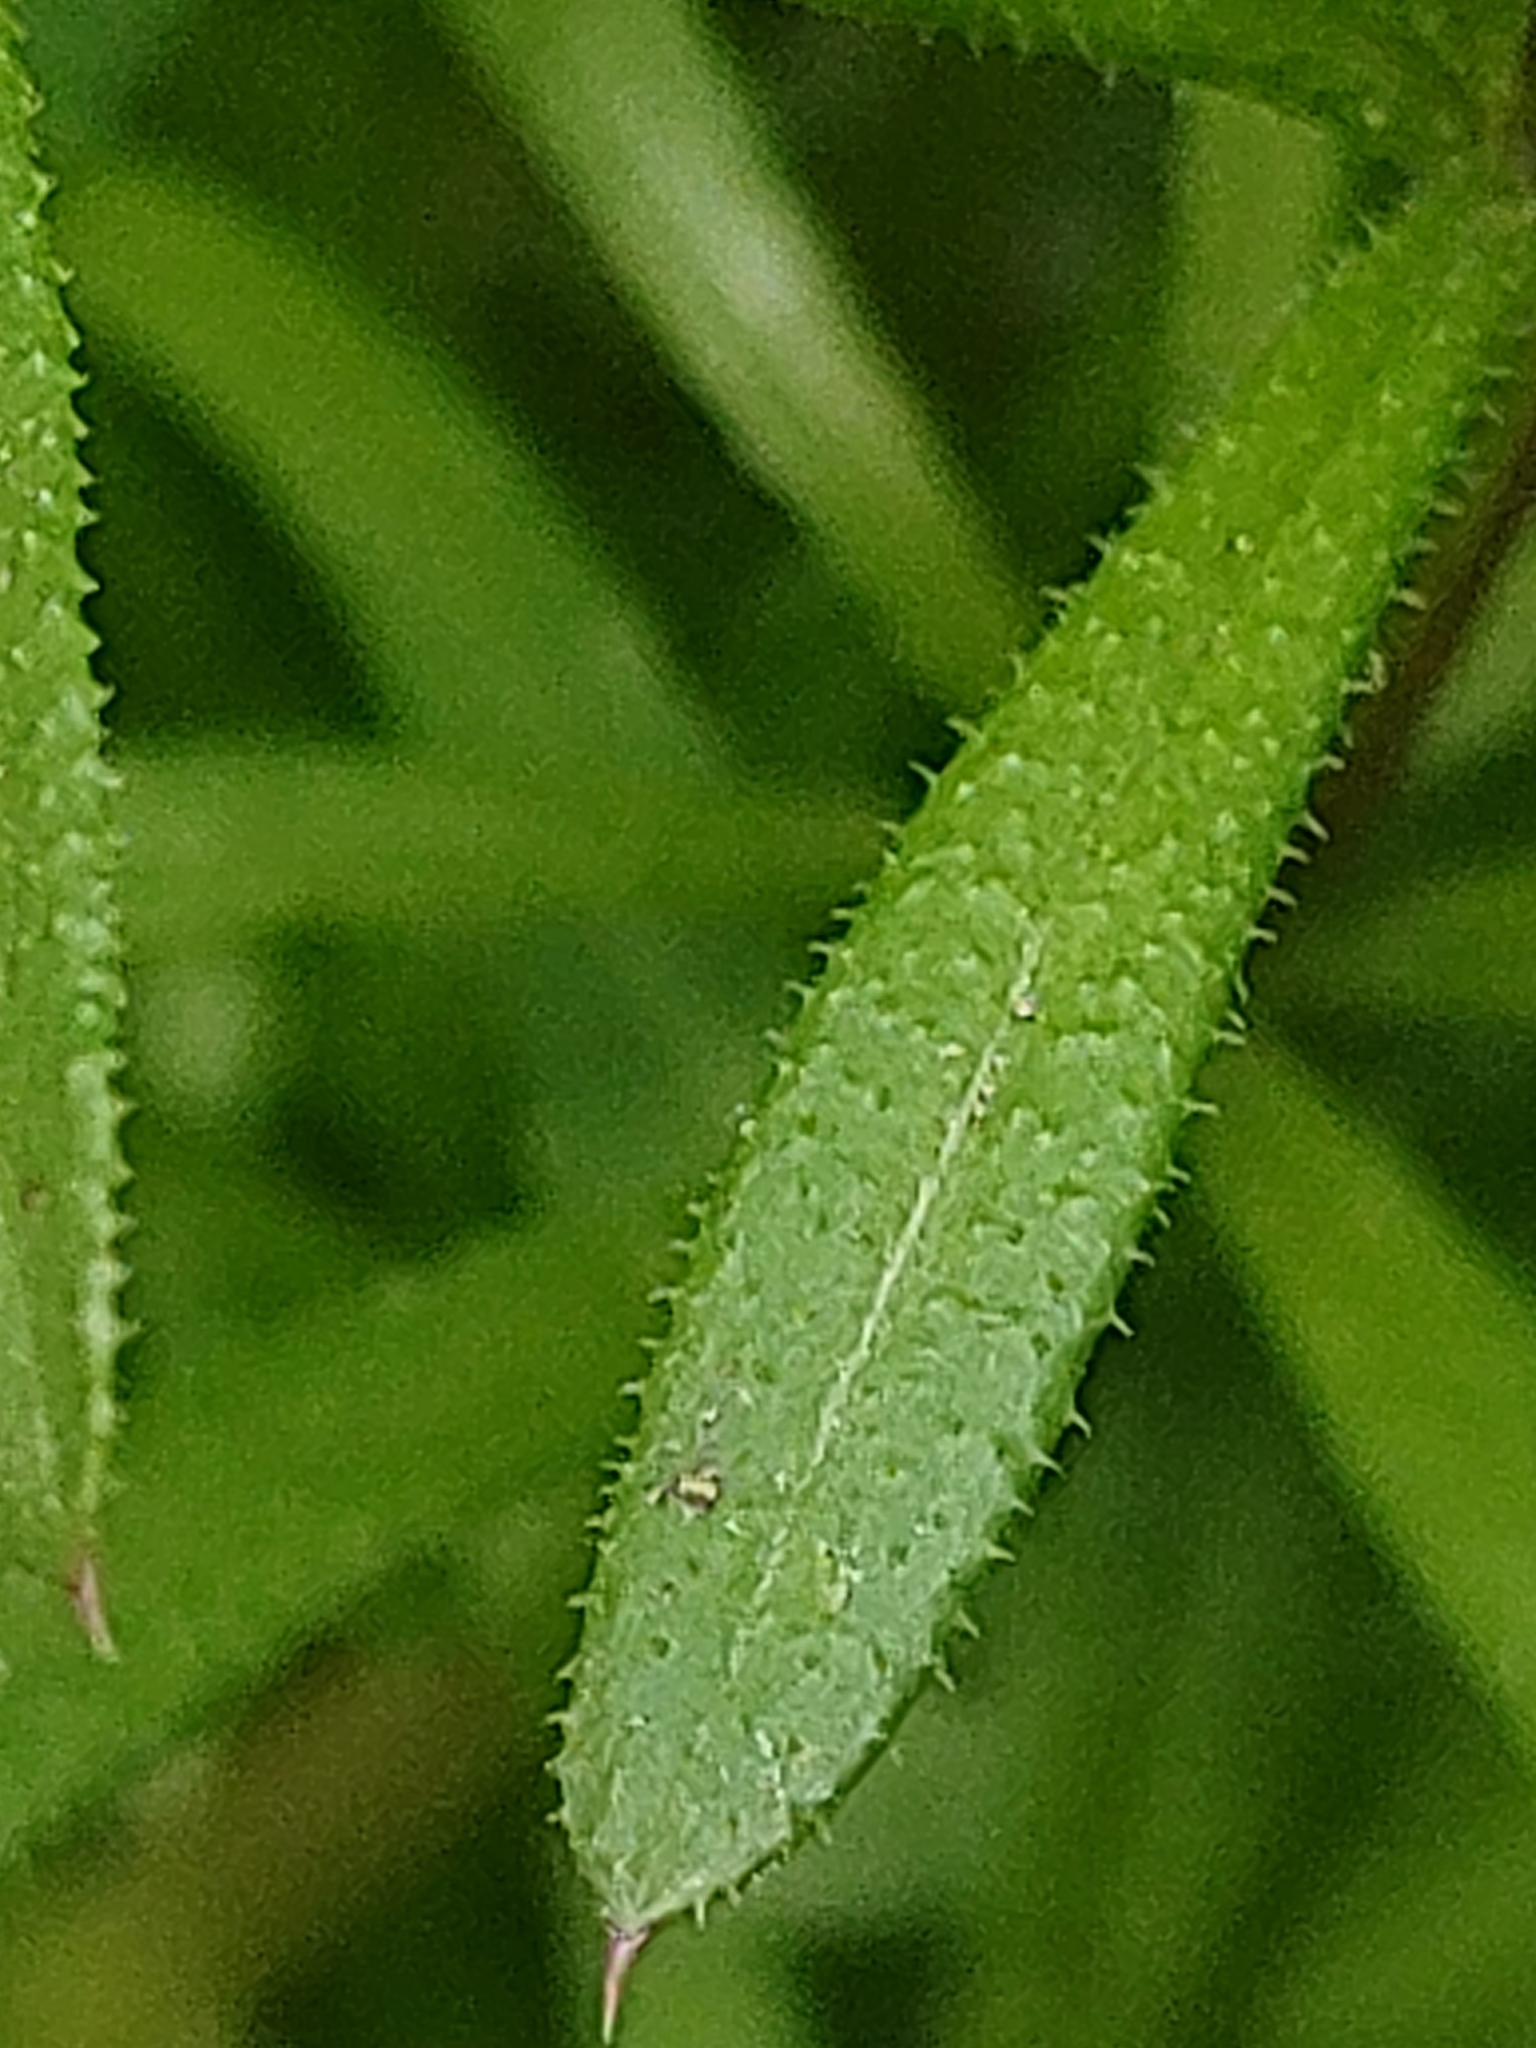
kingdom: Plantae
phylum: Tracheophyta
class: Magnoliopsida
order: Gentianales
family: Rubiaceae
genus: Galium
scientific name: Galium aparine
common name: Cleavers
